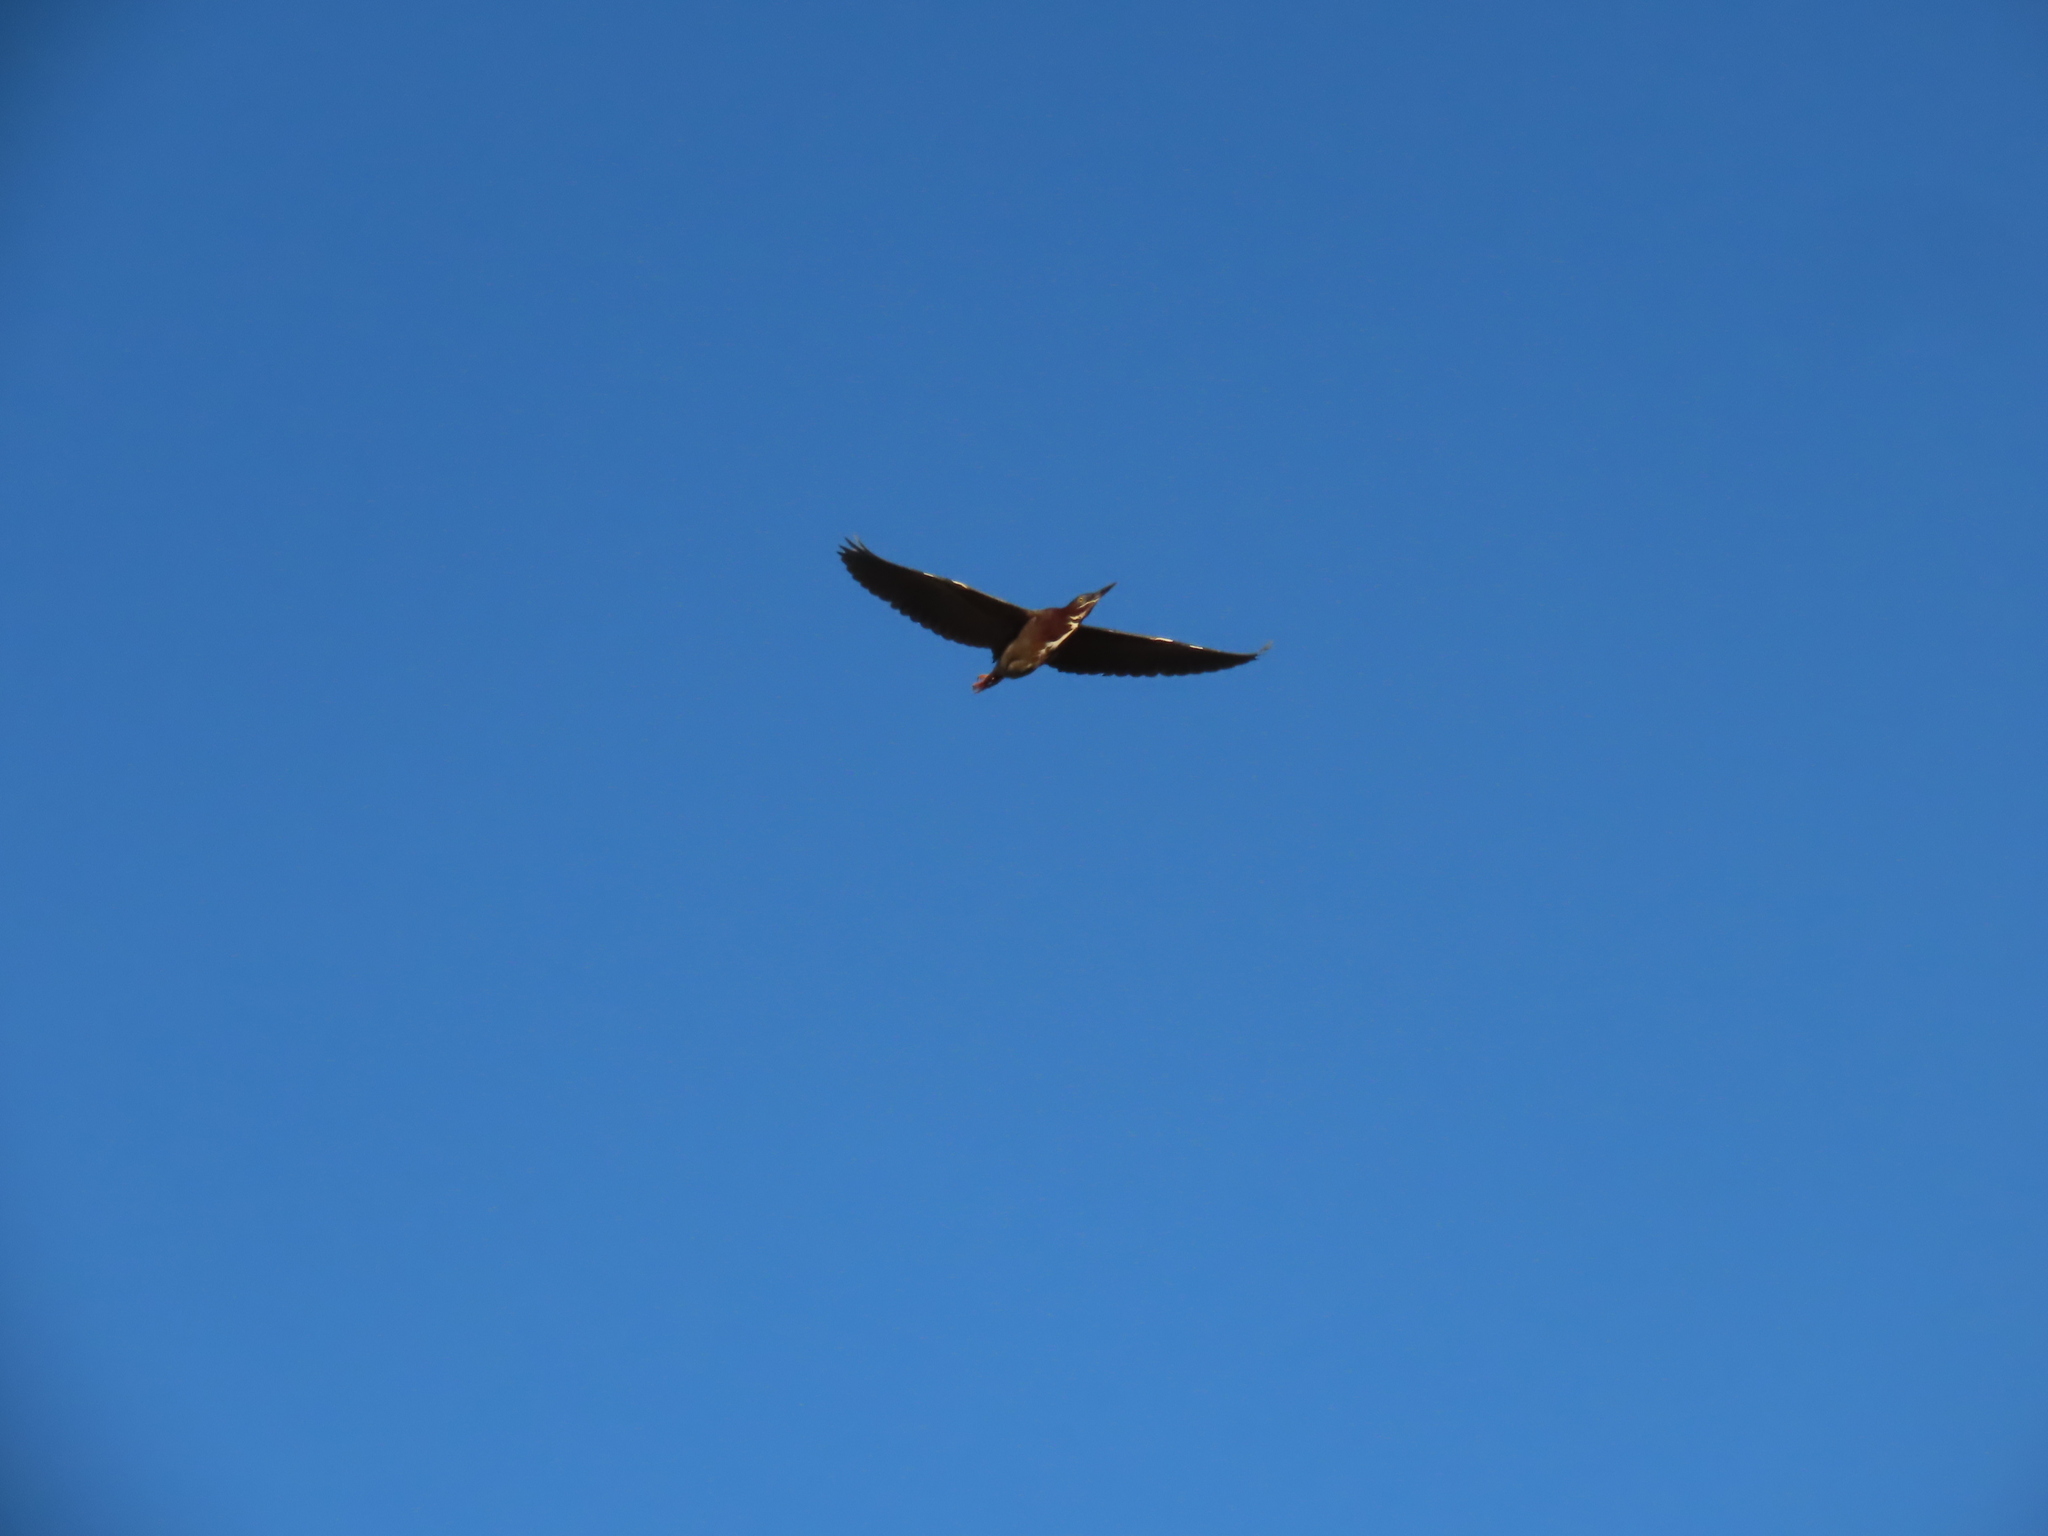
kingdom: Animalia
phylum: Chordata
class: Aves
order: Pelecaniformes
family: Ardeidae
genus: Butorides
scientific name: Butorides virescens
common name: Green heron
